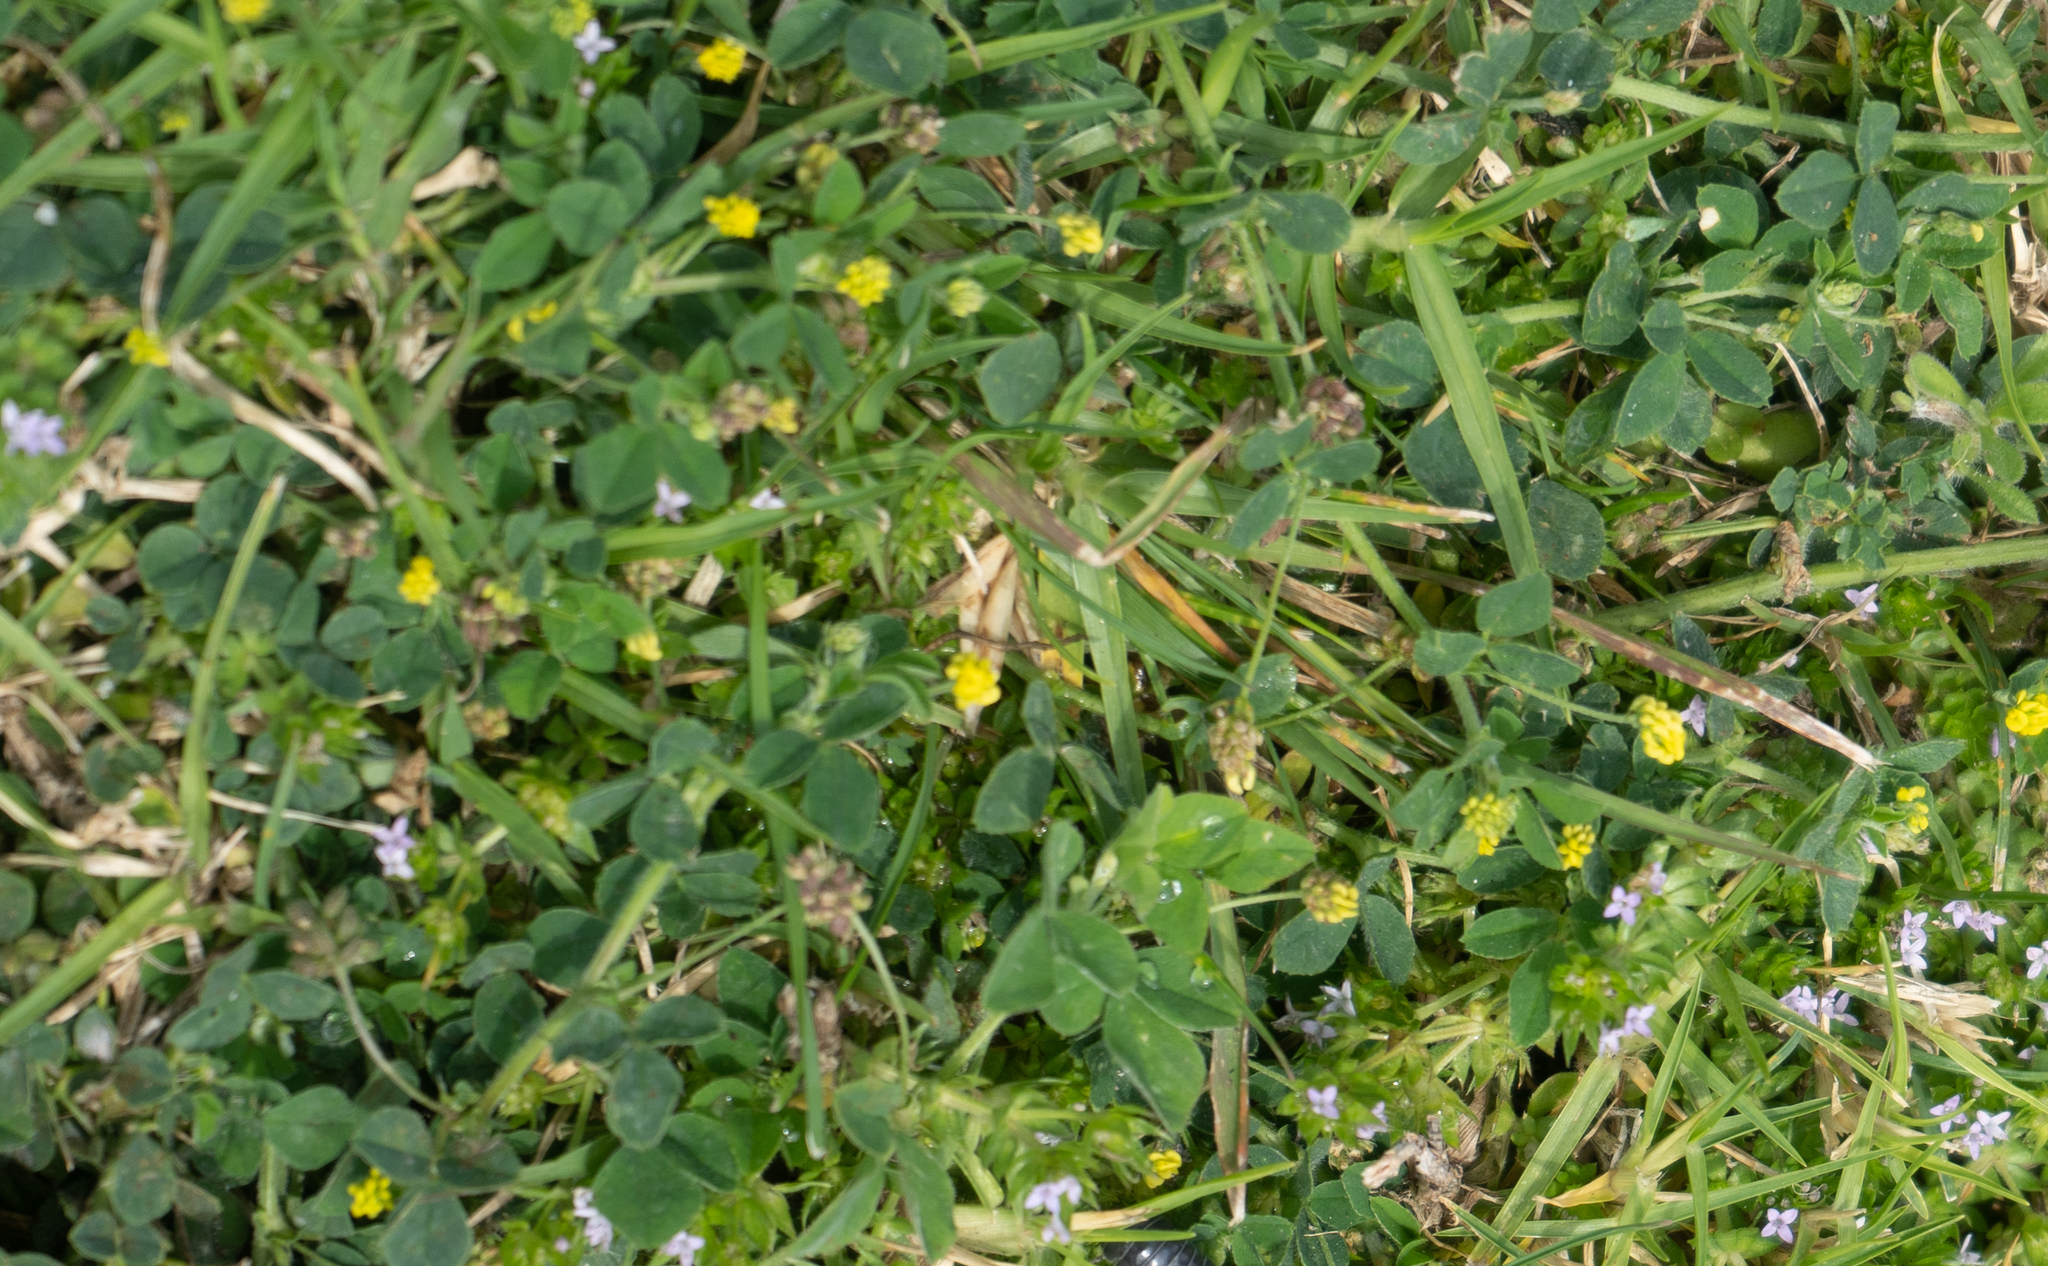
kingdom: Plantae
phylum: Tracheophyta
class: Magnoliopsida
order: Fabales
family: Fabaceae
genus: Medicago
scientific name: Medicago lupulina
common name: Black medick
